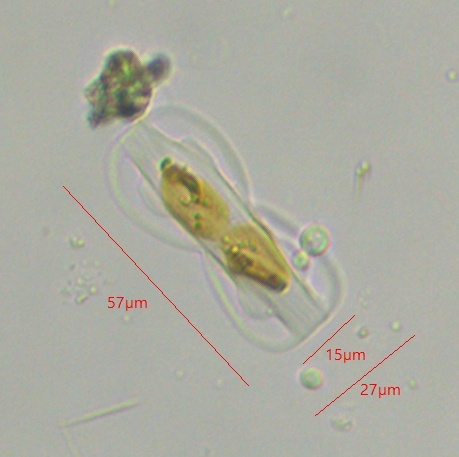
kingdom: Chromista
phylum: Ochrophyta
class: Bacillariophyceae
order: Surirellales
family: Entomoneidaceae
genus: Entomoneis
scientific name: Entomoneis paludosa
